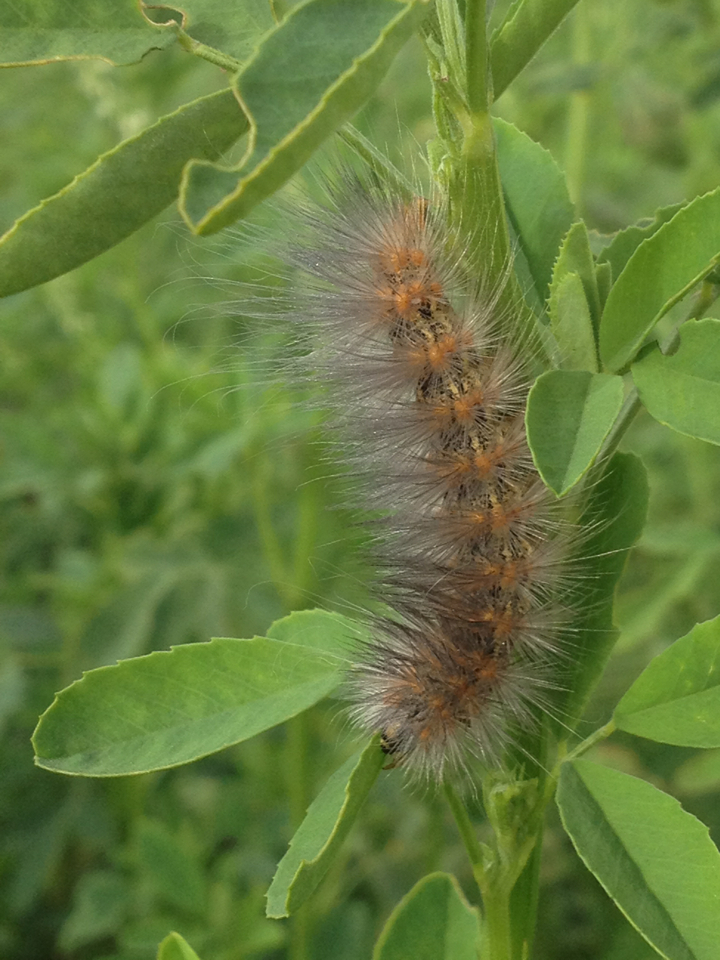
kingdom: Animalia
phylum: Arthropoda
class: Insecta
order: Lepidoptera
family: Erebidae
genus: Estigmene
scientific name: Estigmene acrea
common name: Salt marsh moth
